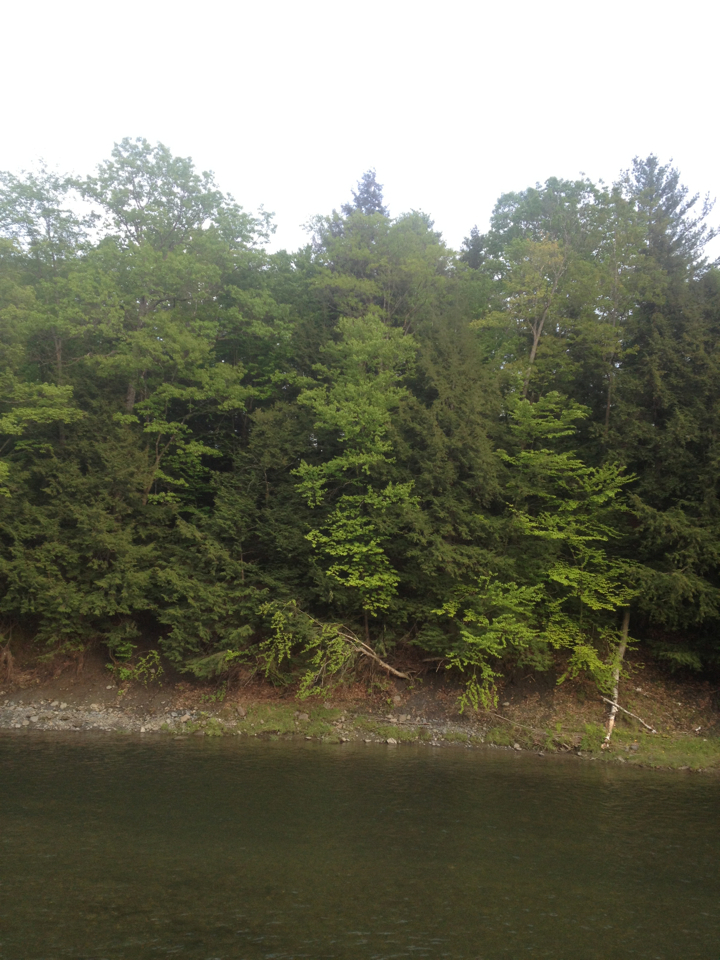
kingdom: Plantae
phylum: Tracheophyta
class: Pinopsida
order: Pinales
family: Pinaceae
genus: Tsuga
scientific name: Tsuga canadensis
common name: Eastern hemlock
